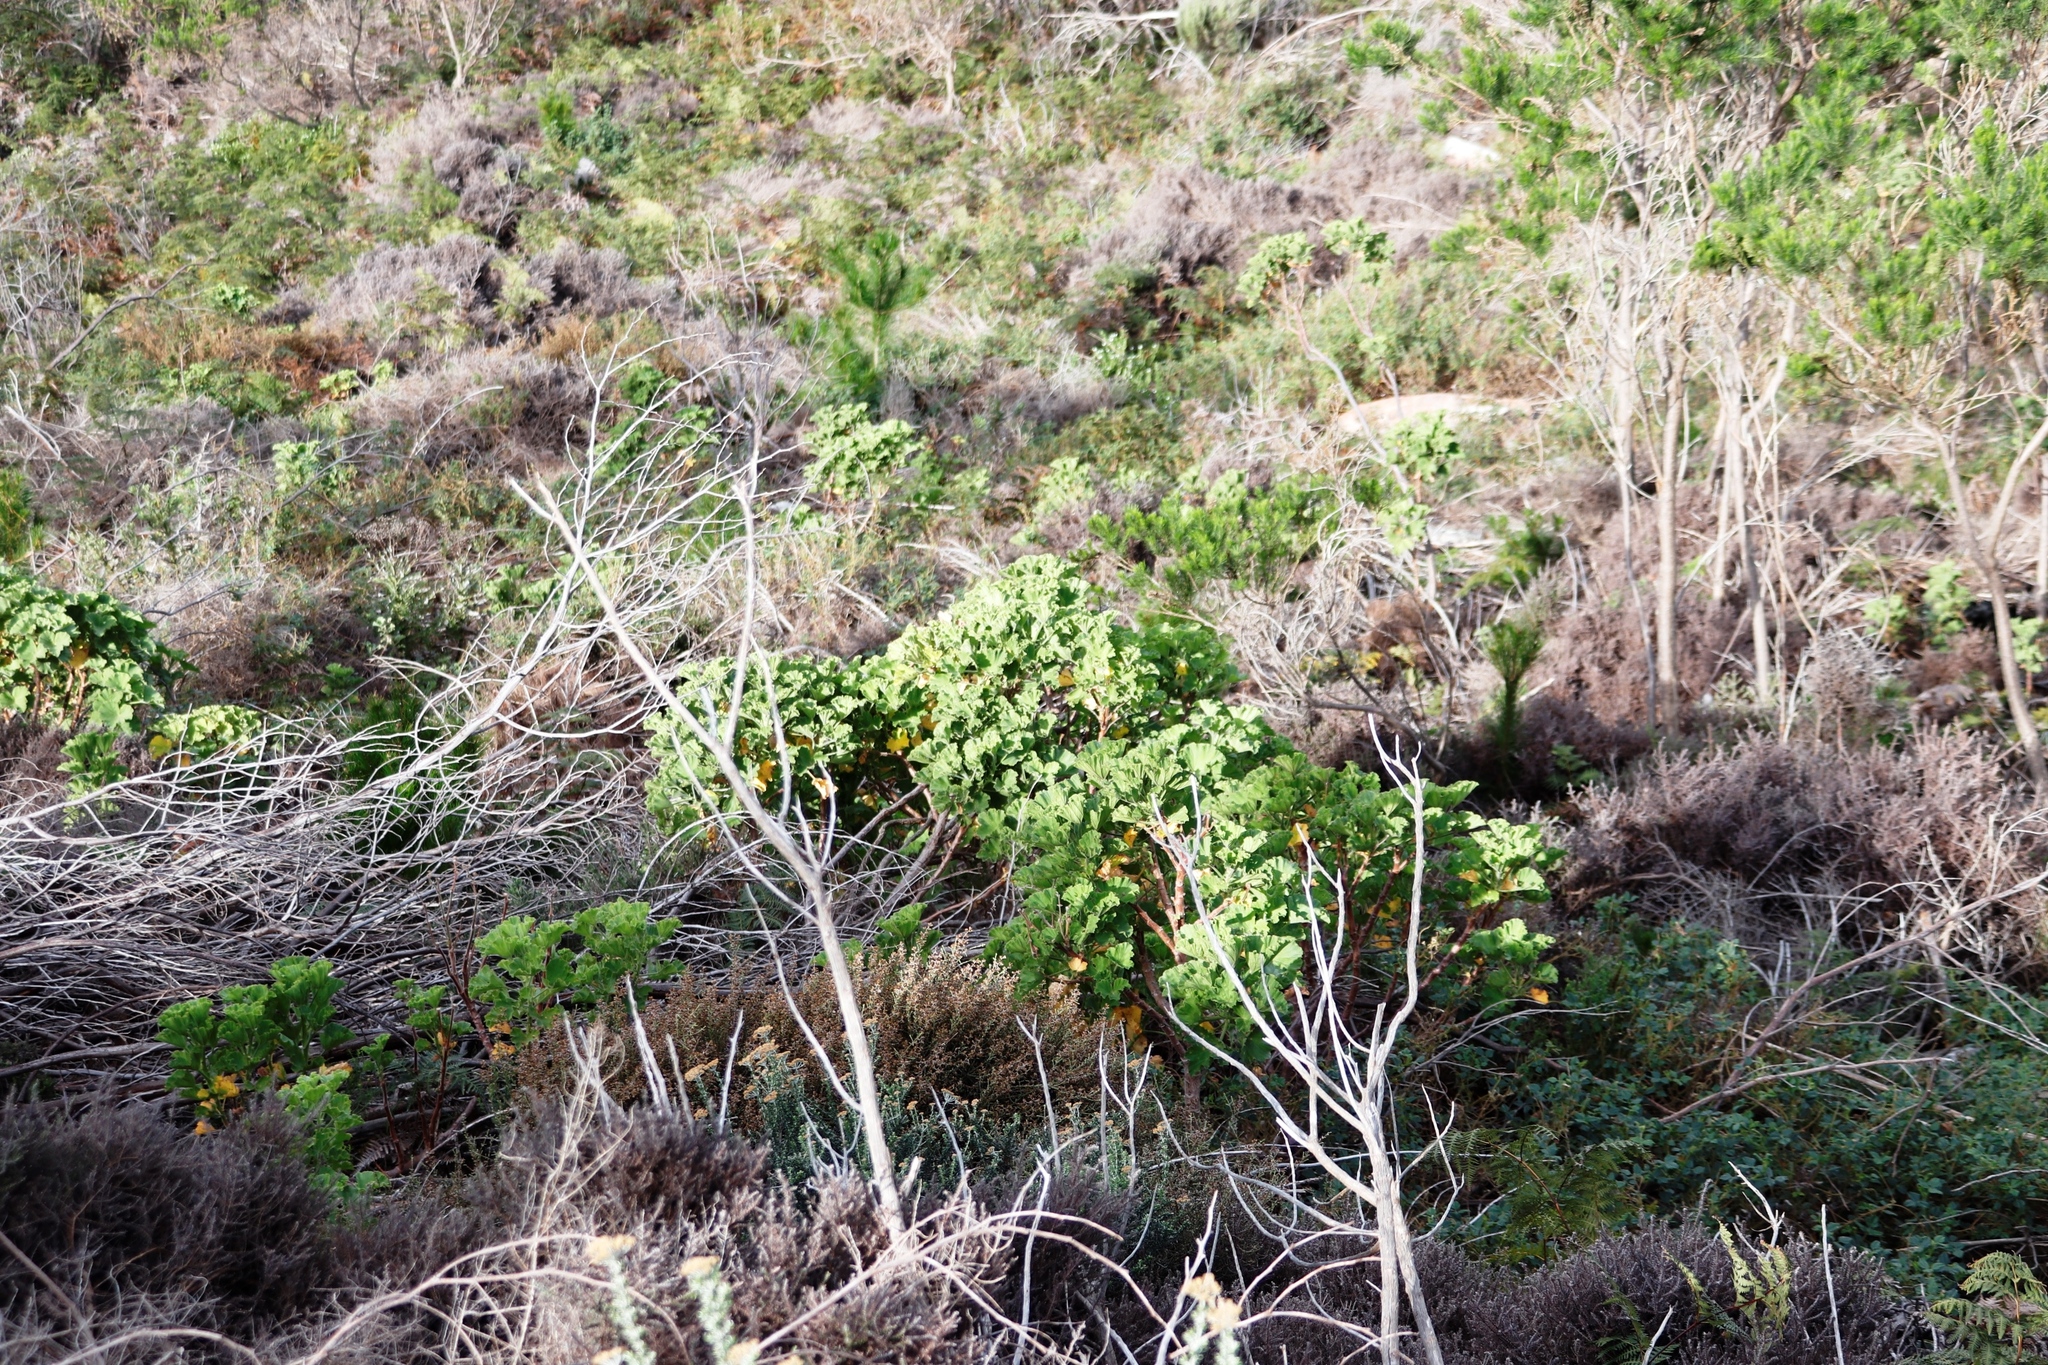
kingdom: Plantae
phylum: Tracheophyta
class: Magnoliopsida
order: Geraniales
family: Geraniaceae
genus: Pelargonium
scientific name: Pelargonium cucullatum
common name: Tree pelargonium
